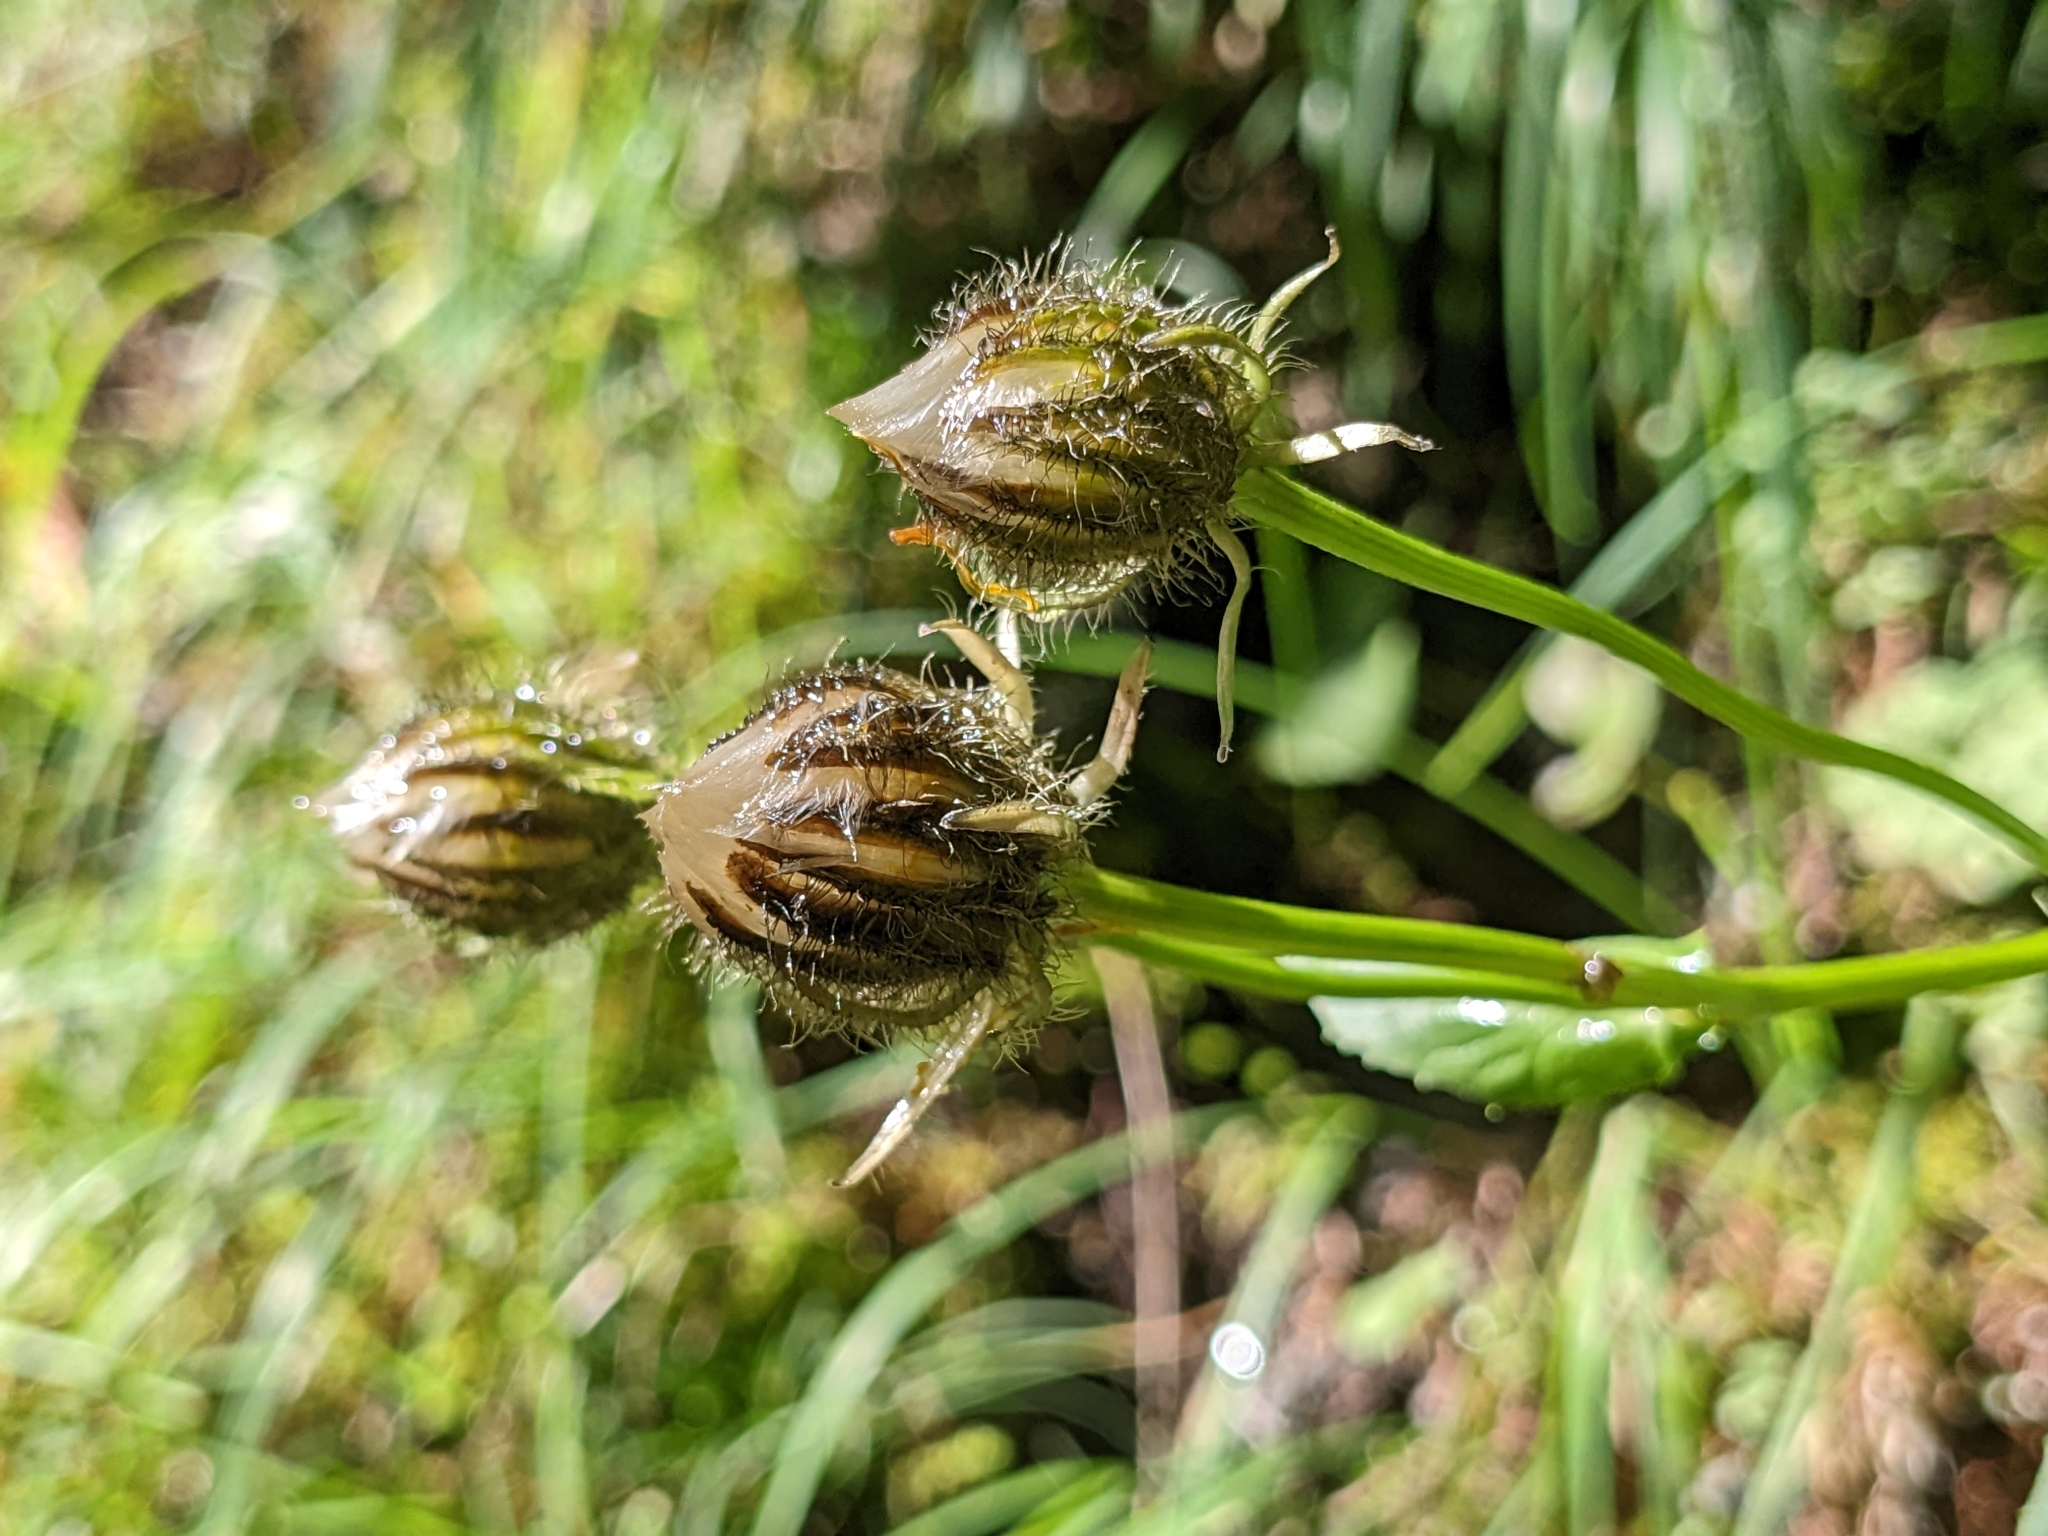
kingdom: Plantae
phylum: Tracheophyta
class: Magnoliopsida
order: Asterales
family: Asteraceae
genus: Crepis
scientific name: Crepis pyrenaica
